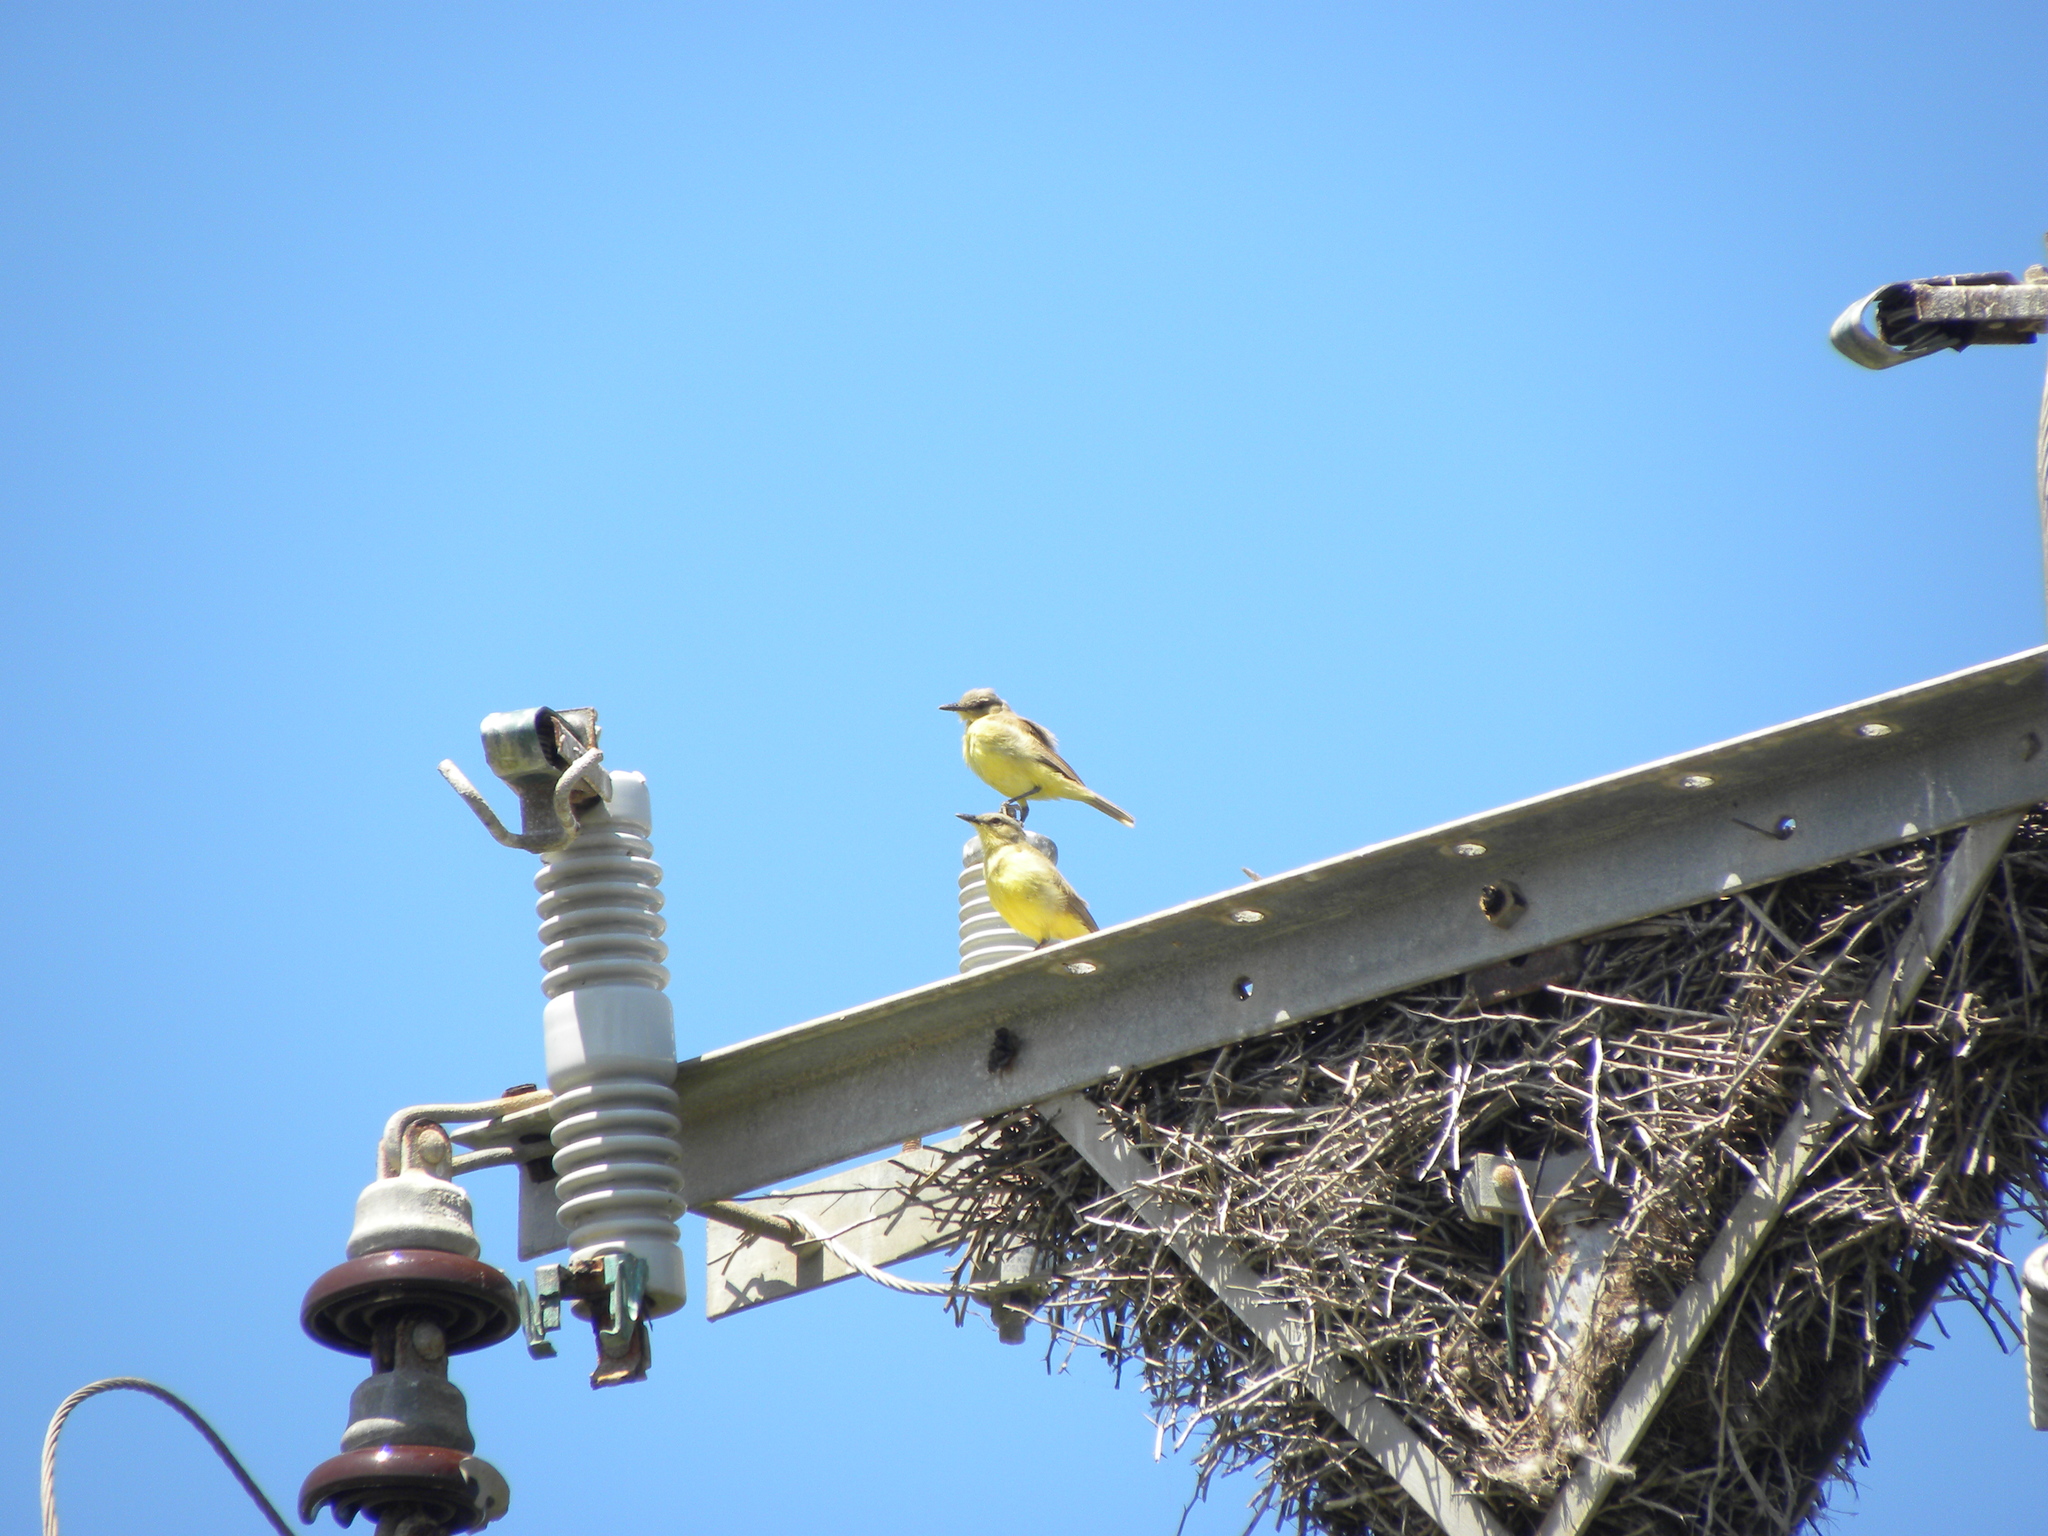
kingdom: Animalia
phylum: Chordata
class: Aves
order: Passeriformes
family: Tyrannidae
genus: Machetornis
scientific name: Machetornis rixosa
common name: Cattle tyrant
